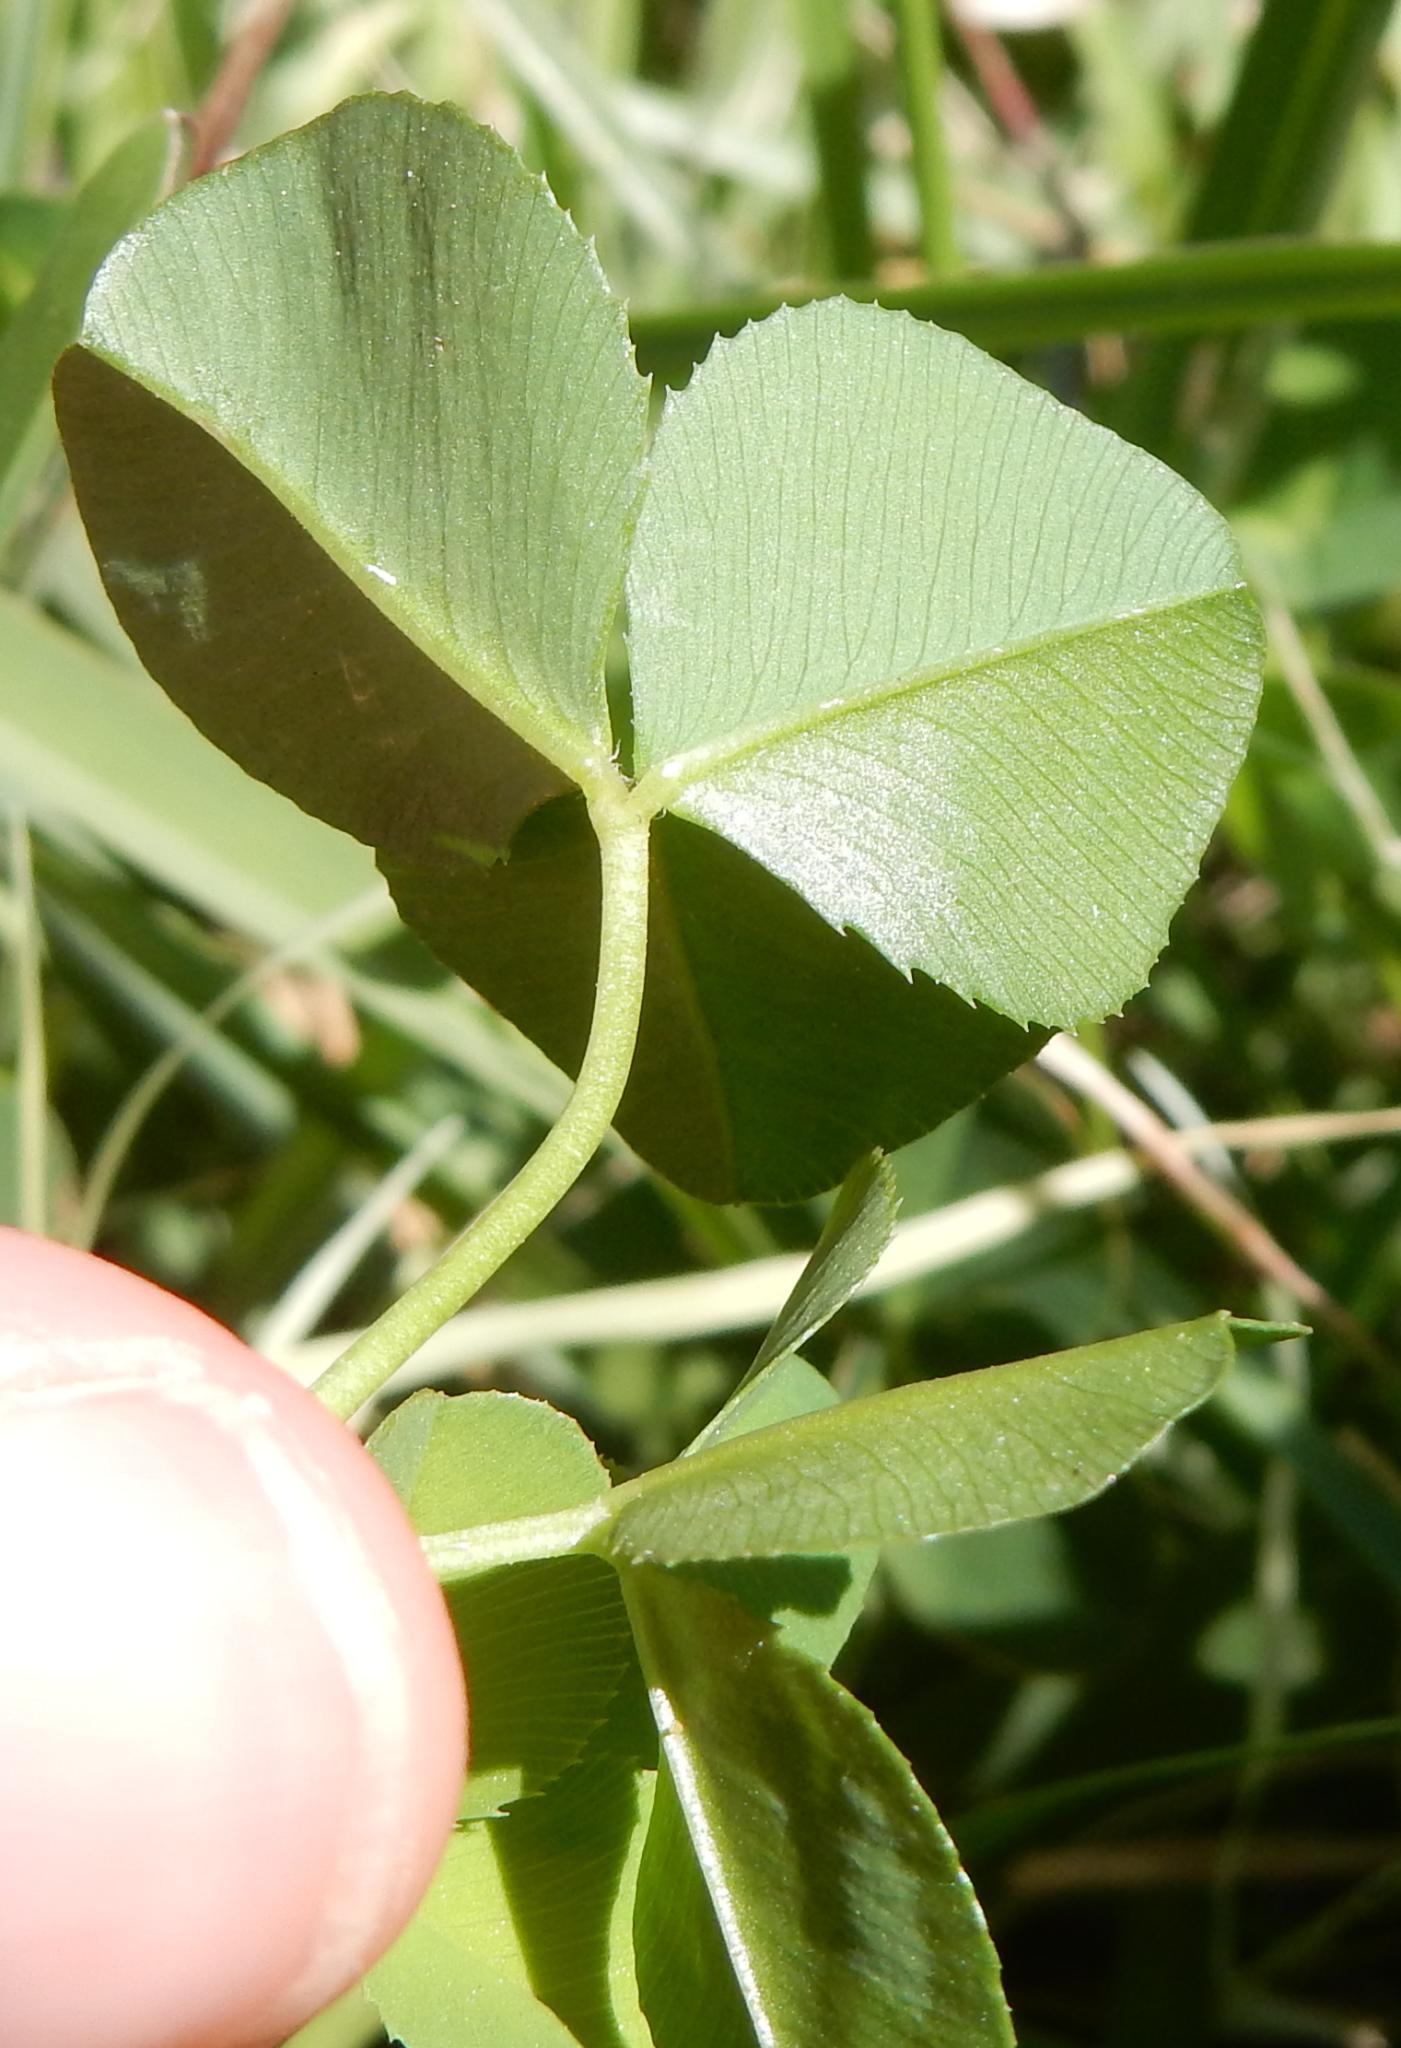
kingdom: Plantae
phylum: Tracheophyta
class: Magnoliopsida
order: Fabales
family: Fabaceae
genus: Trifolium
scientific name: Trifolium burchellianum
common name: Burchell's clover
